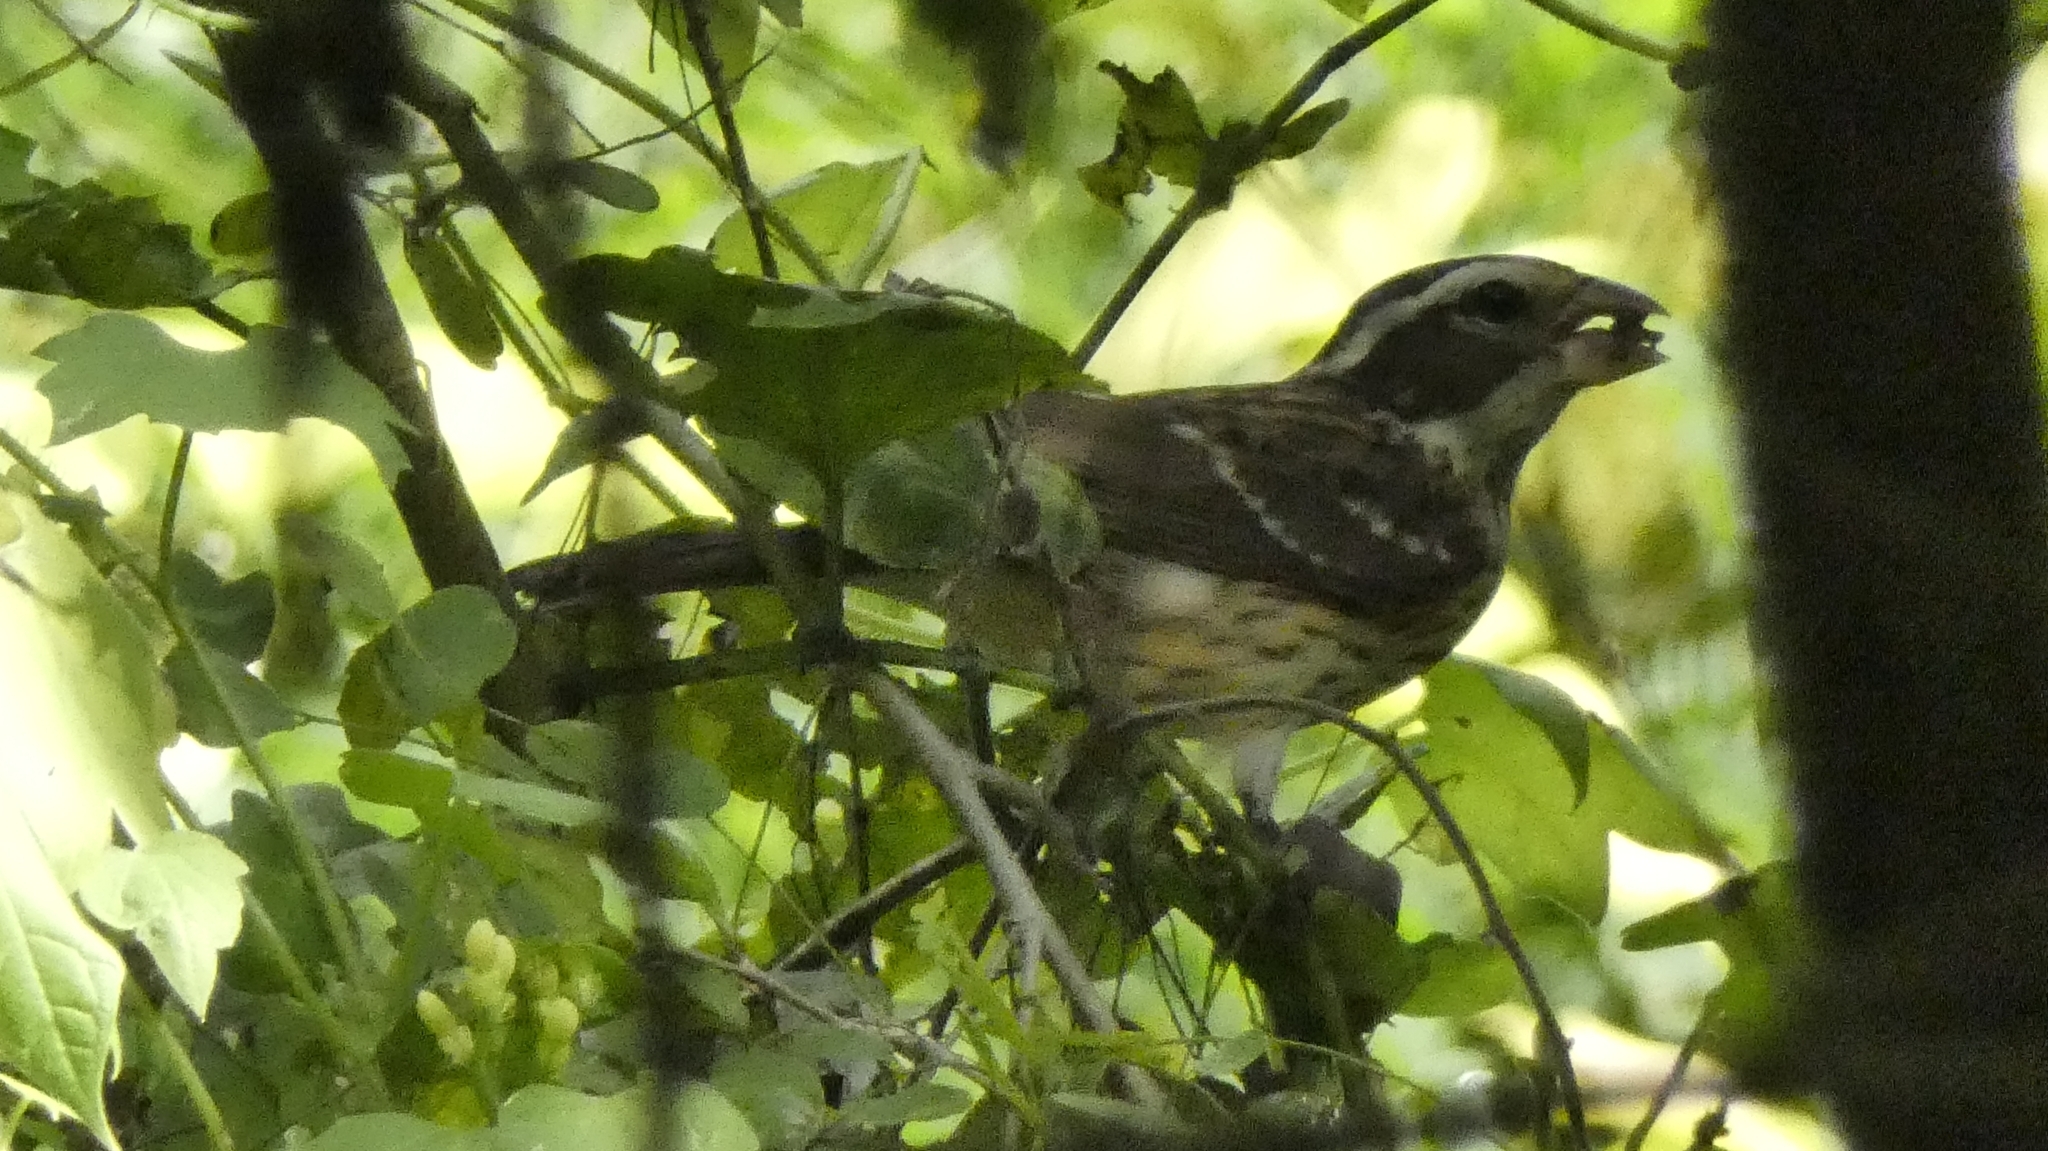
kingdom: Animalia
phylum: Chordata
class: Aves
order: Passeriformes
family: Cardinalidae
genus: Pheucticus
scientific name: Pheucticus ludovicianus
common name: Rose-breasted grosbeak
